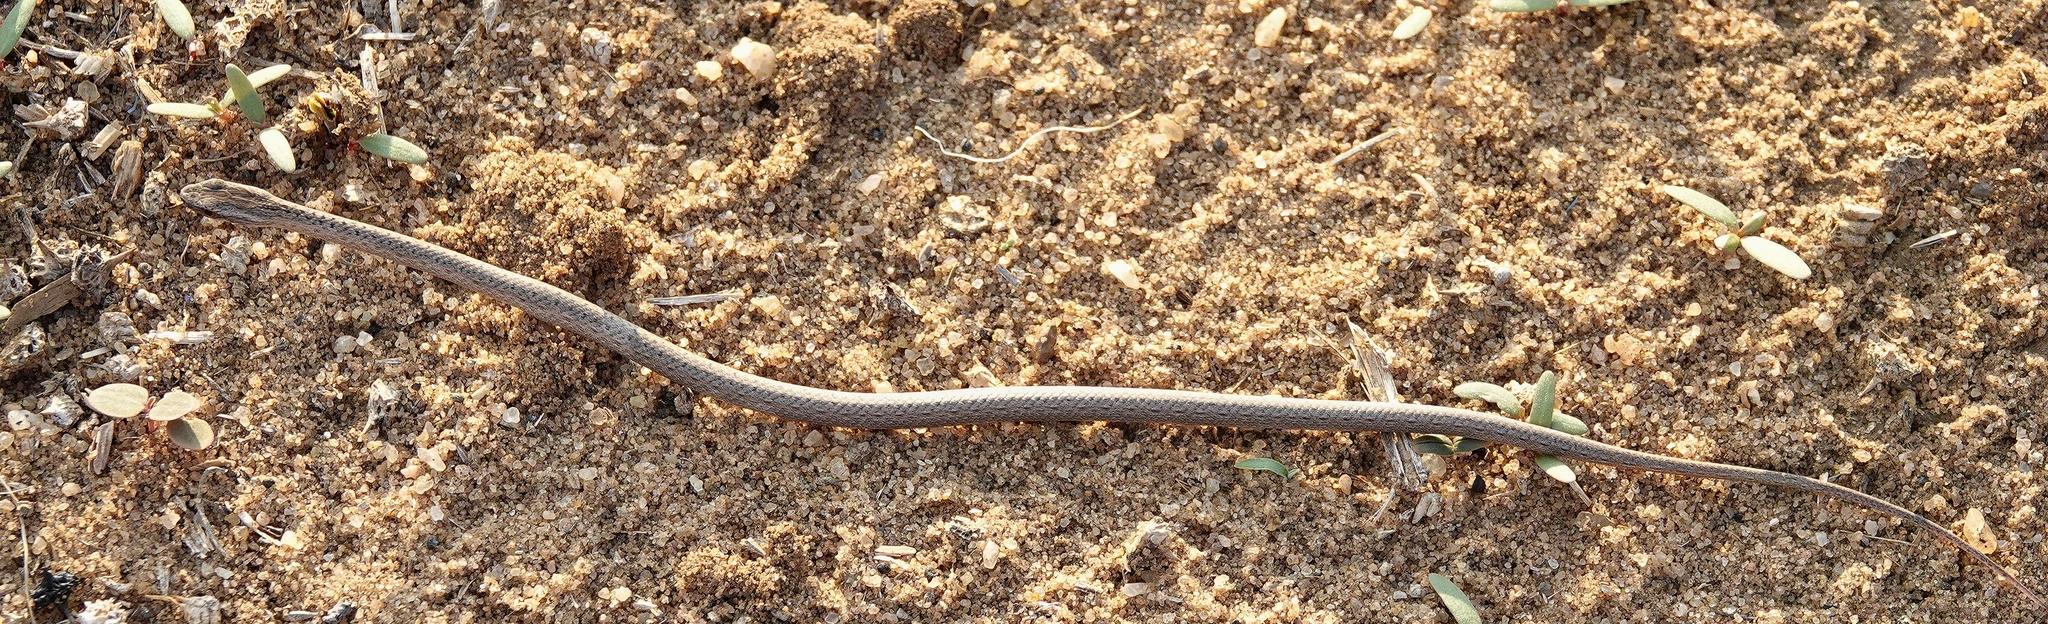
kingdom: Animalia
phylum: Chordata
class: Squamata
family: Psammophiidae
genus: Mimophis
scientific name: Mimophis mahfalensis
